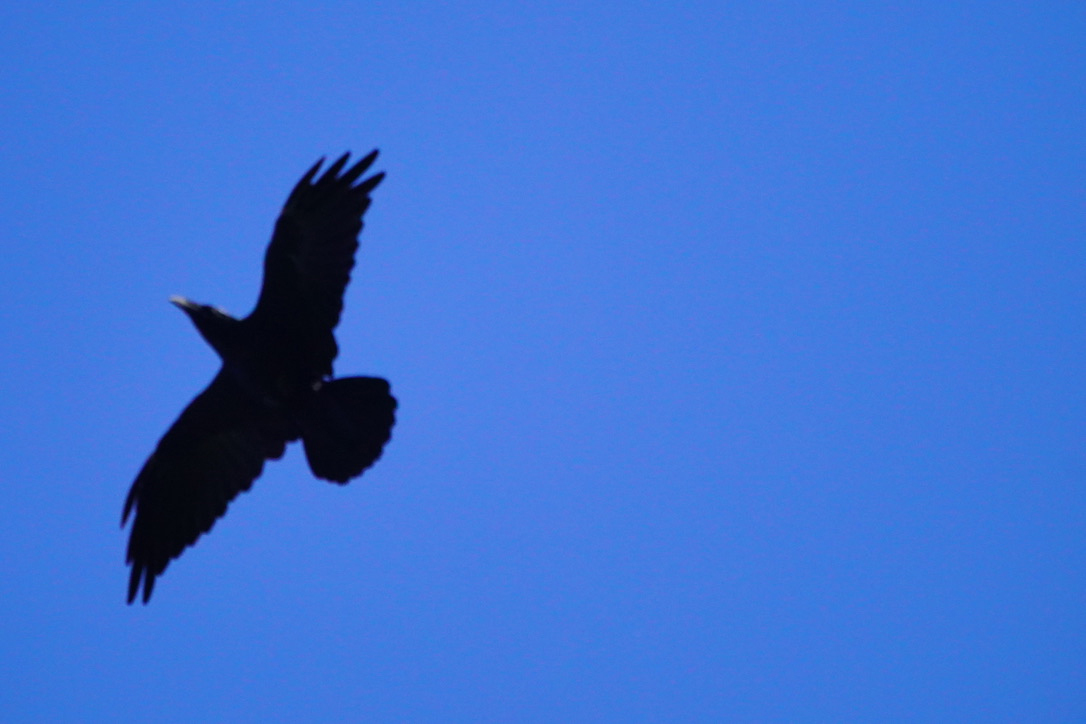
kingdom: Animalia
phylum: Chordata
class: Aves
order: Passeriformes
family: Corvidae
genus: Corvus
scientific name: Corvus corax
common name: Common raven
